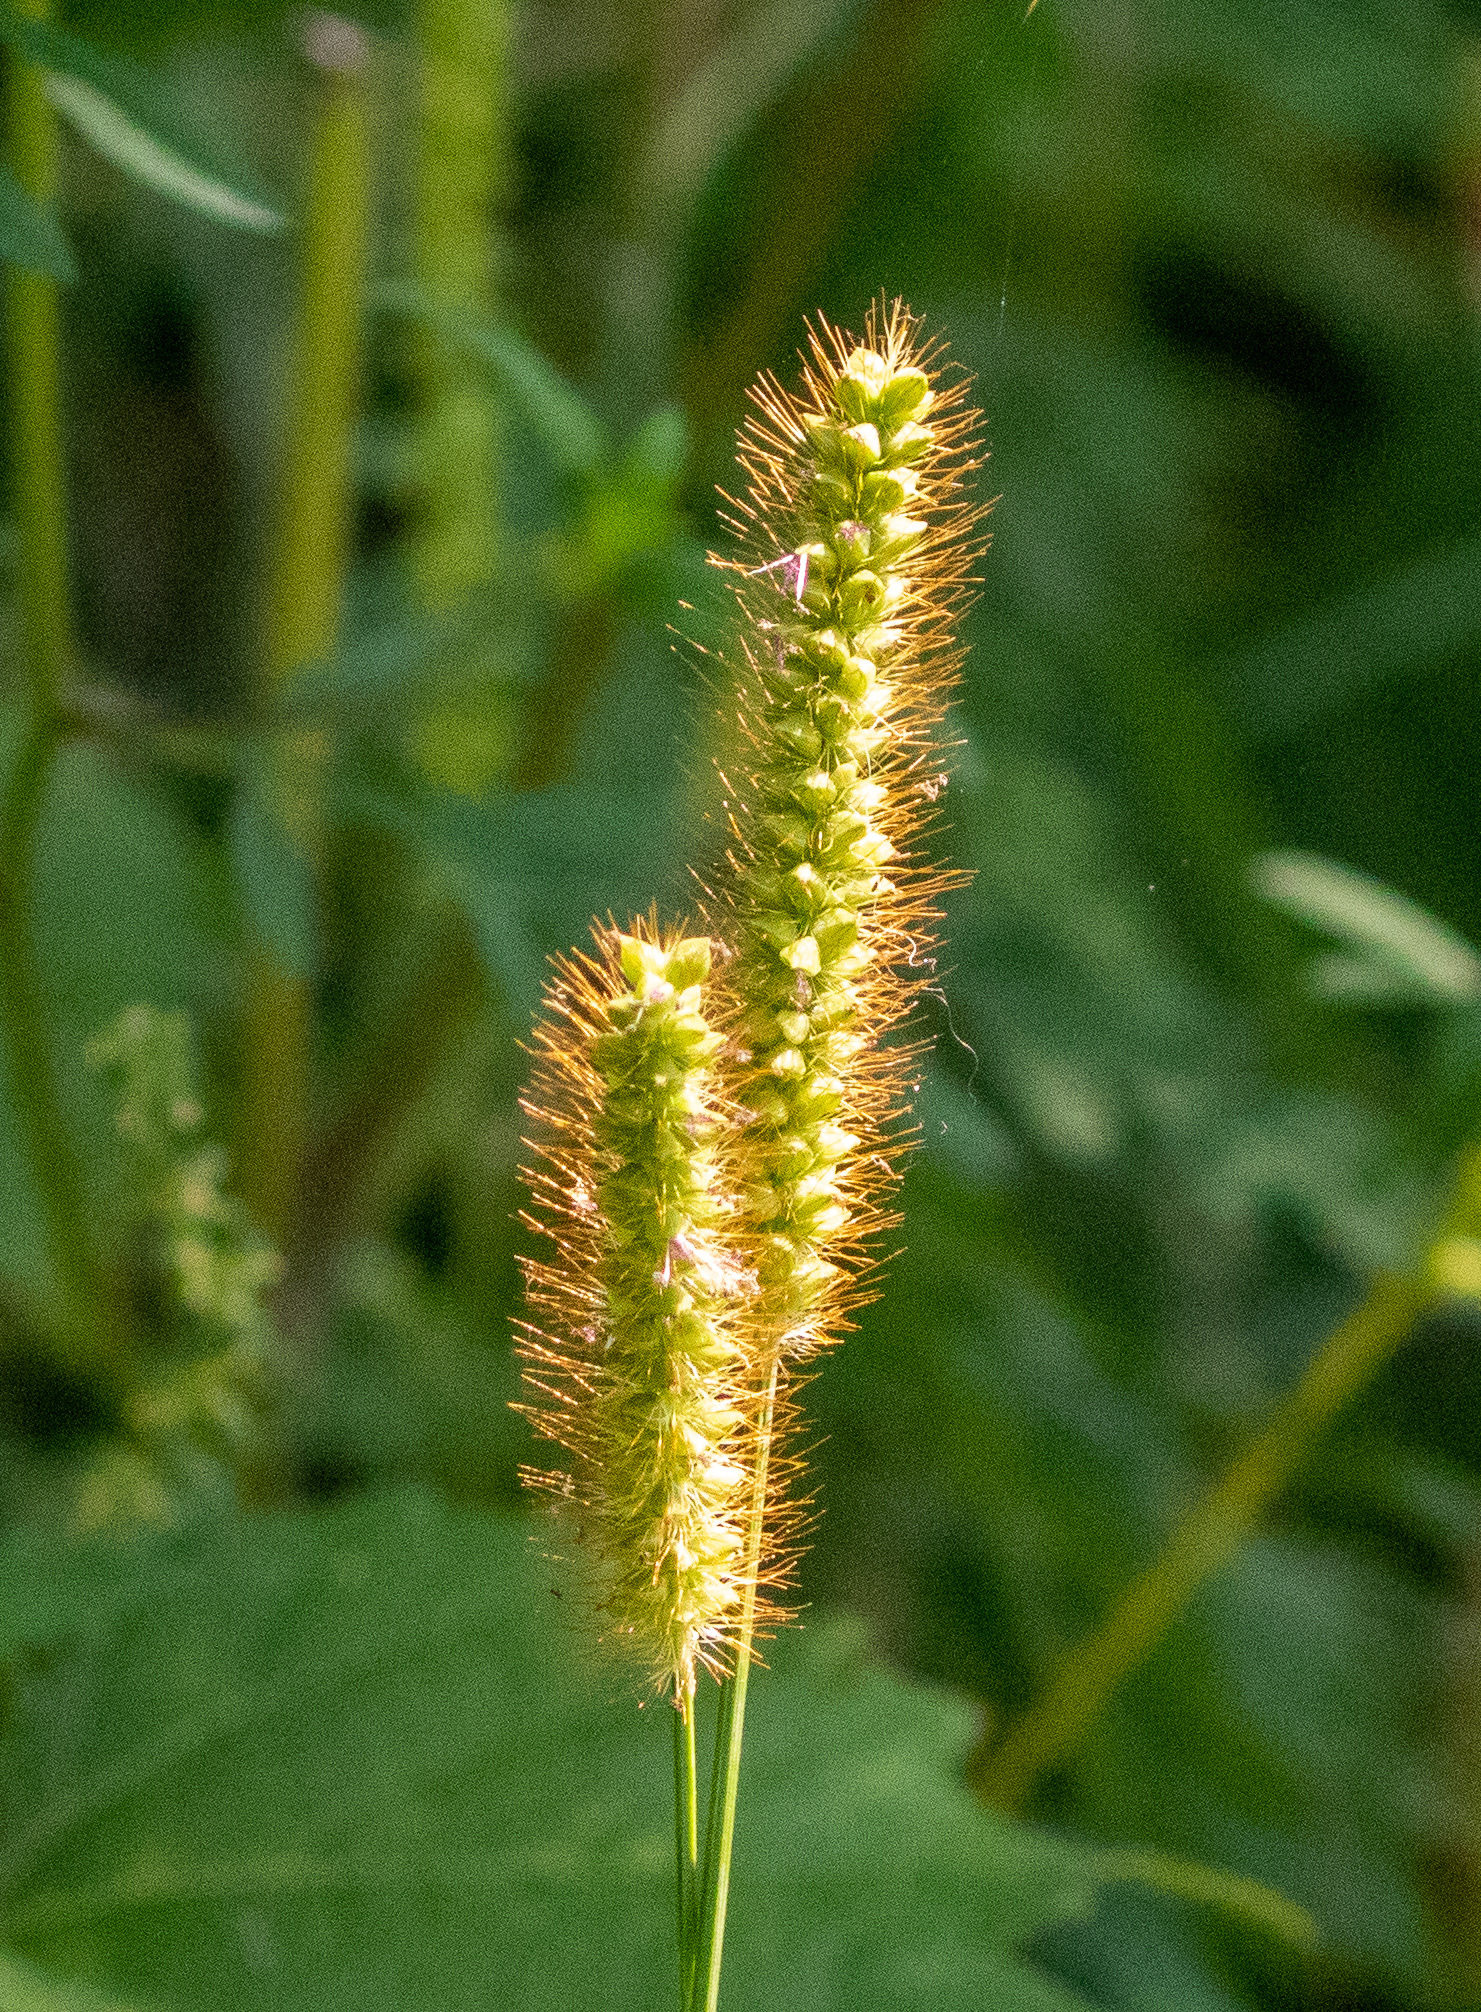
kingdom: Plantae
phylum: Tracheophyta
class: Liliopsida
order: Poales
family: Poaceae
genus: Setaria
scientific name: Setaria pumila
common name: Yellow bristle-grass
